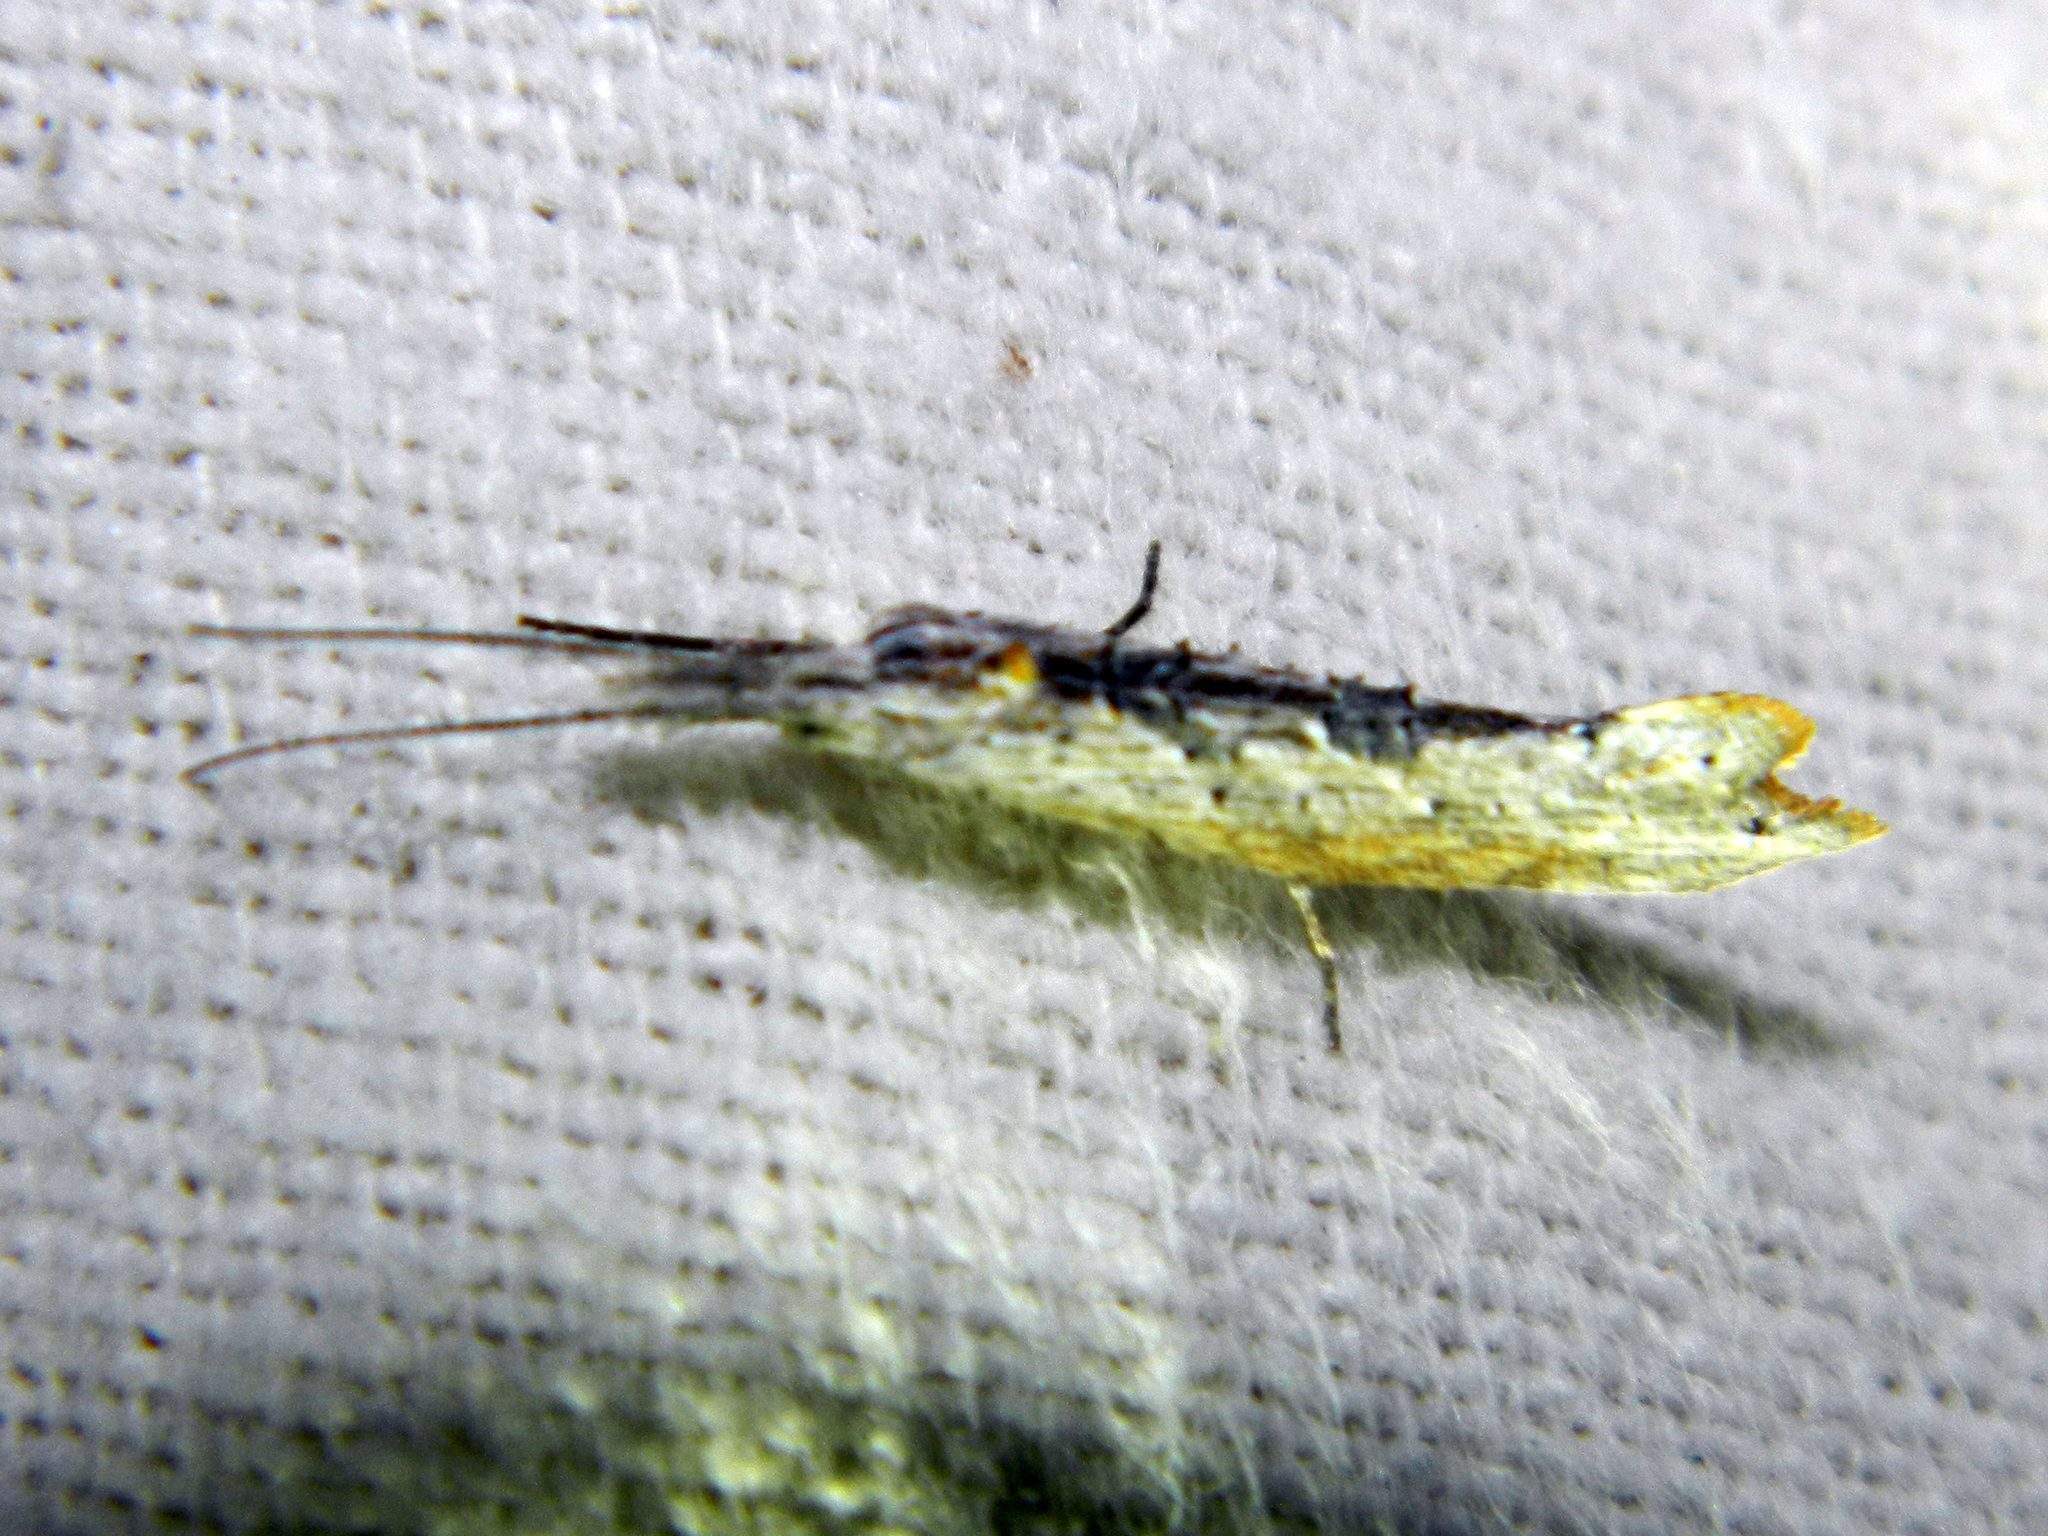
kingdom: Animalia
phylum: Arthropoda
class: Insecta
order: Lepidoptera
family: Ypsolophidae
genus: Ypsolopha
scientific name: Ypsolopha falciferella
